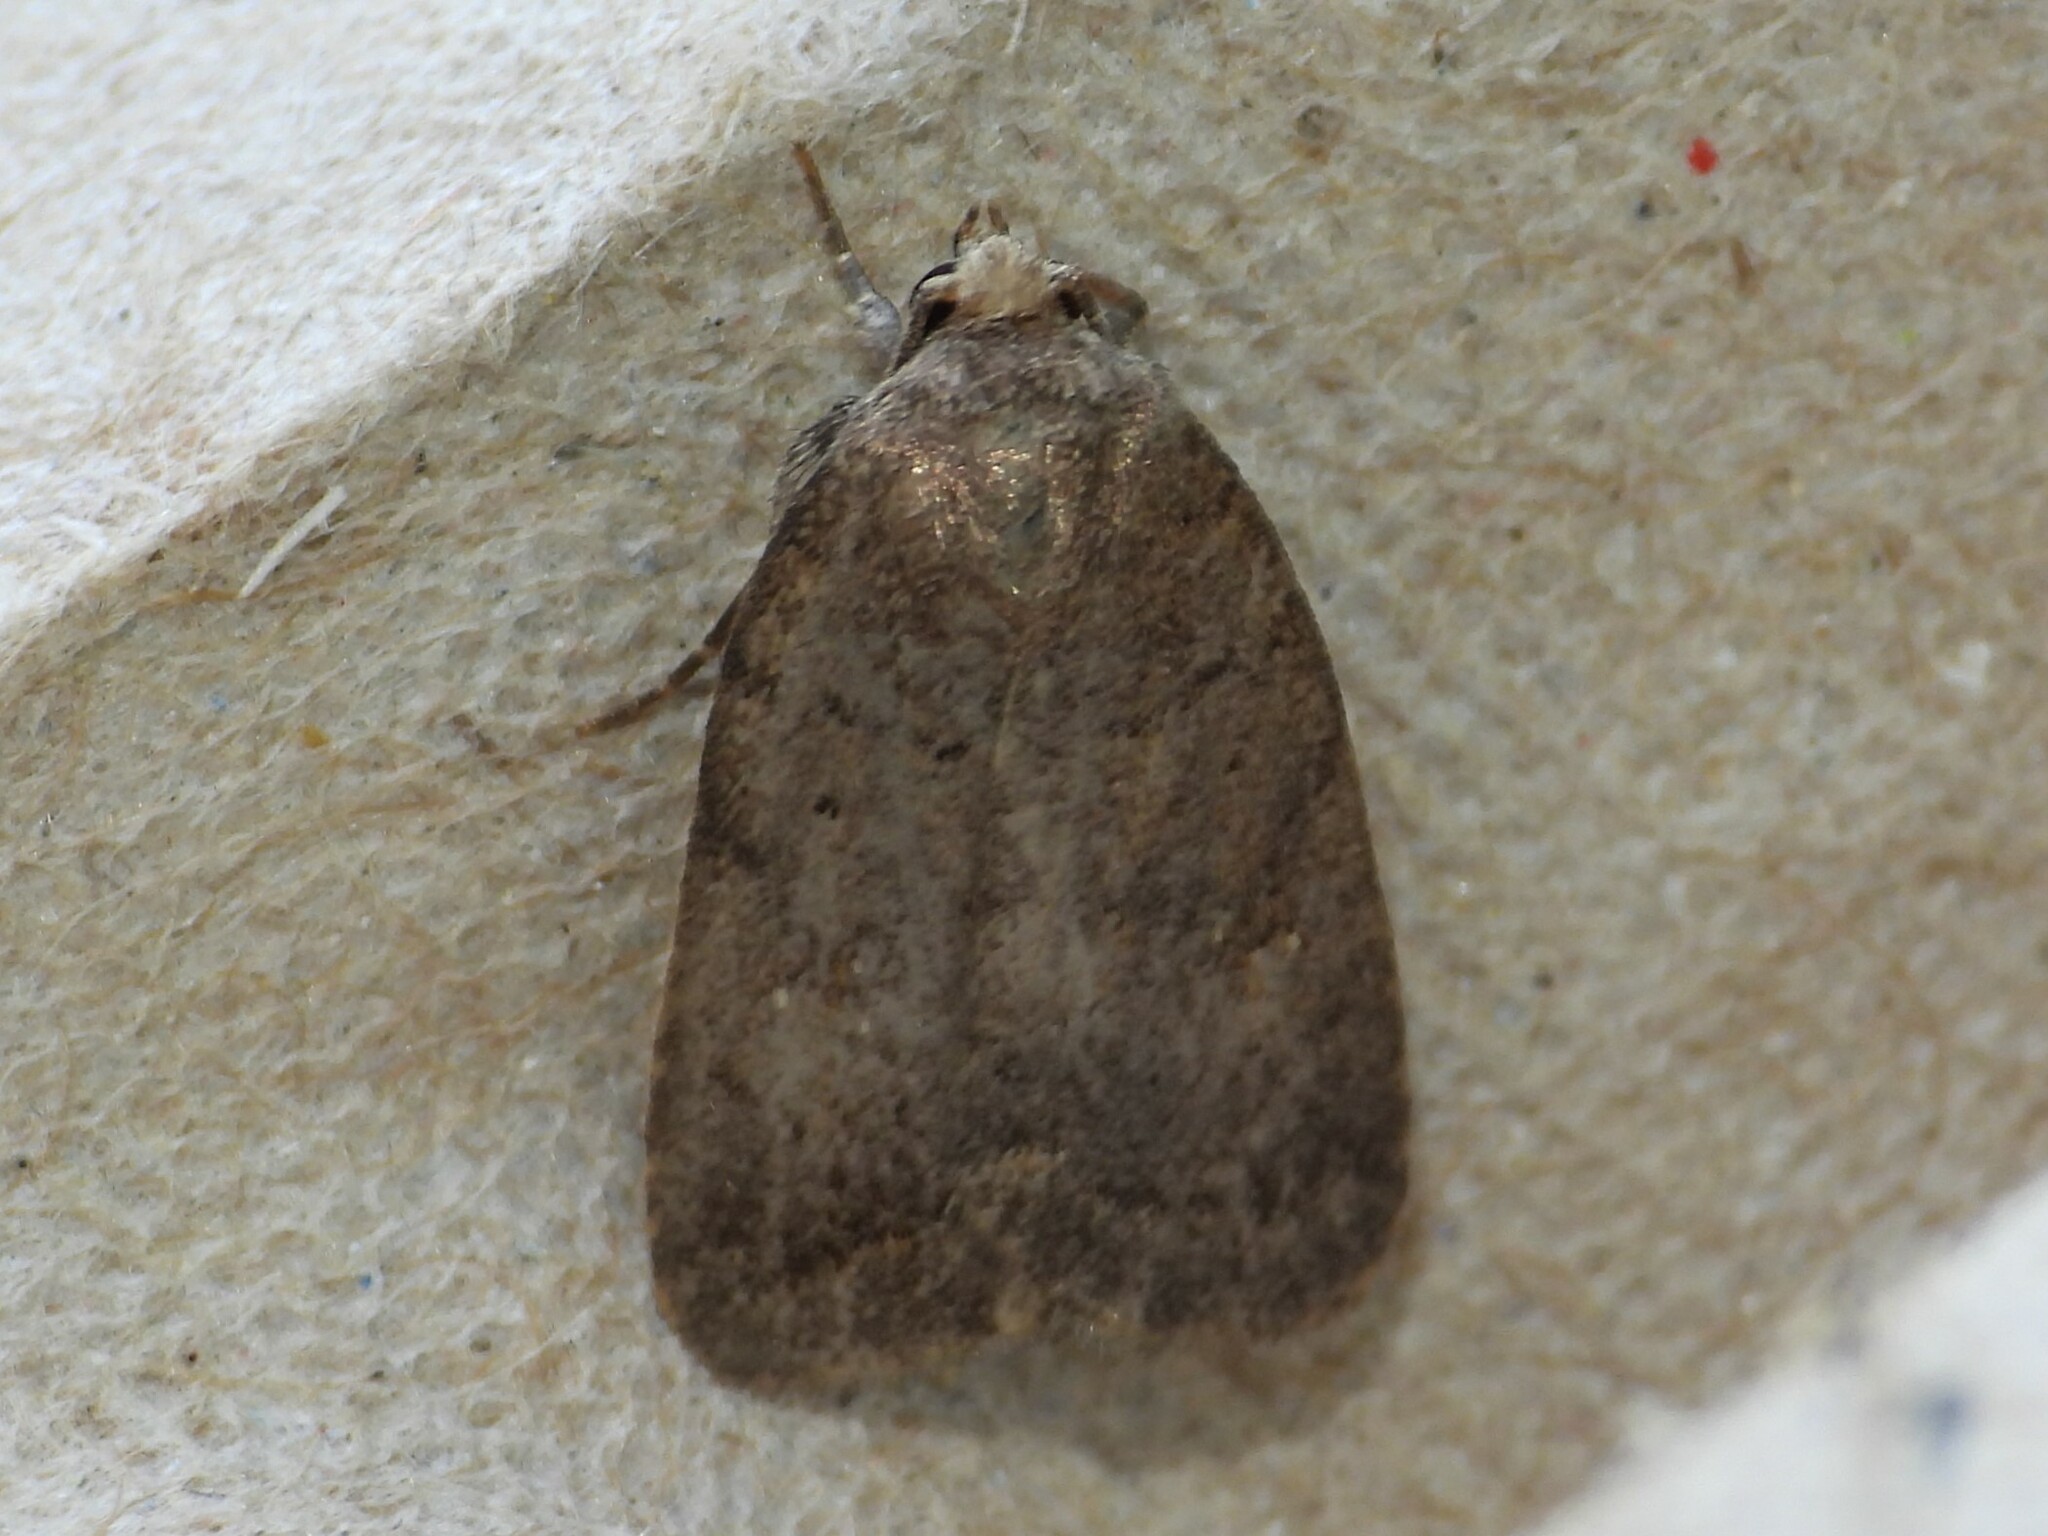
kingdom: Animalia
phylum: Arthropoda
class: Insecta
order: Lepidoptera
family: Noctuidae
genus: Athetis
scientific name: Athetis tarda
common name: Slowpoke moth
